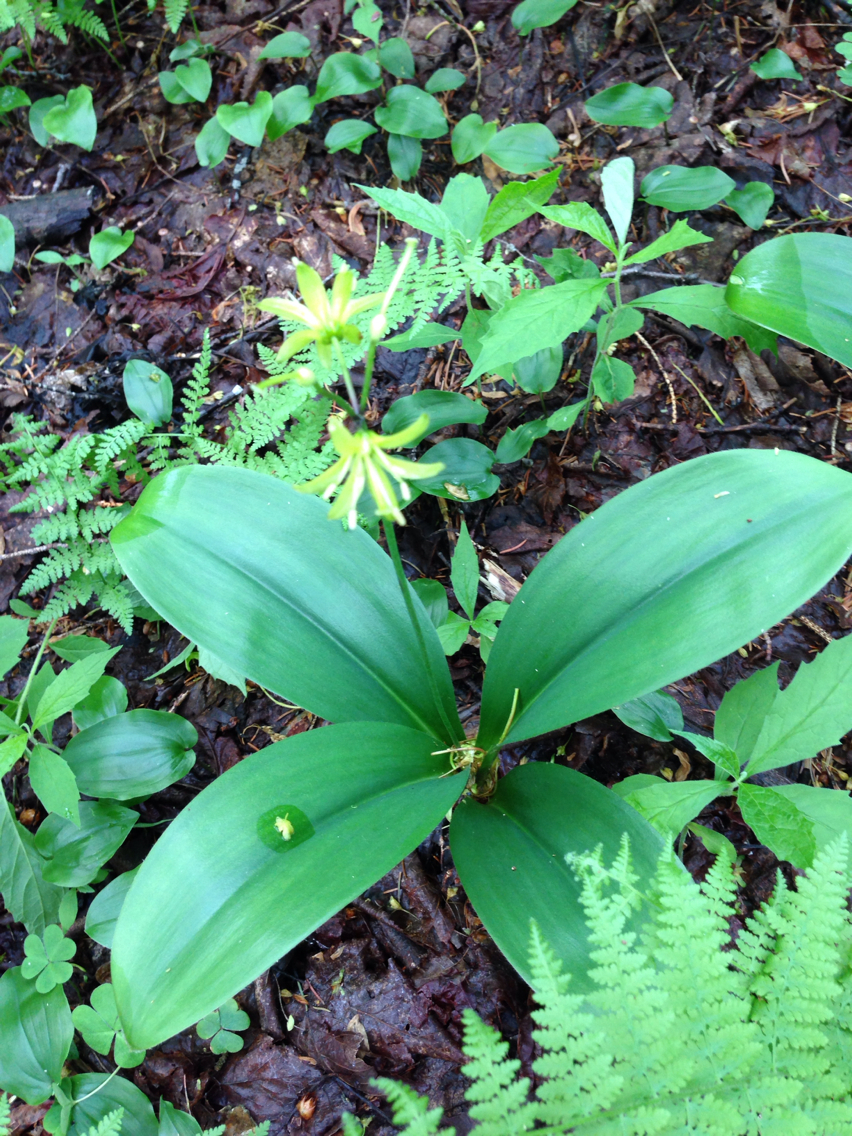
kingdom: Plantae
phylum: Tracheophyta
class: Liliopsida
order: Liliales
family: Liliaceae
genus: Clintonia
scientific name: Clintonia borealis
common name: Yellow clintonia
